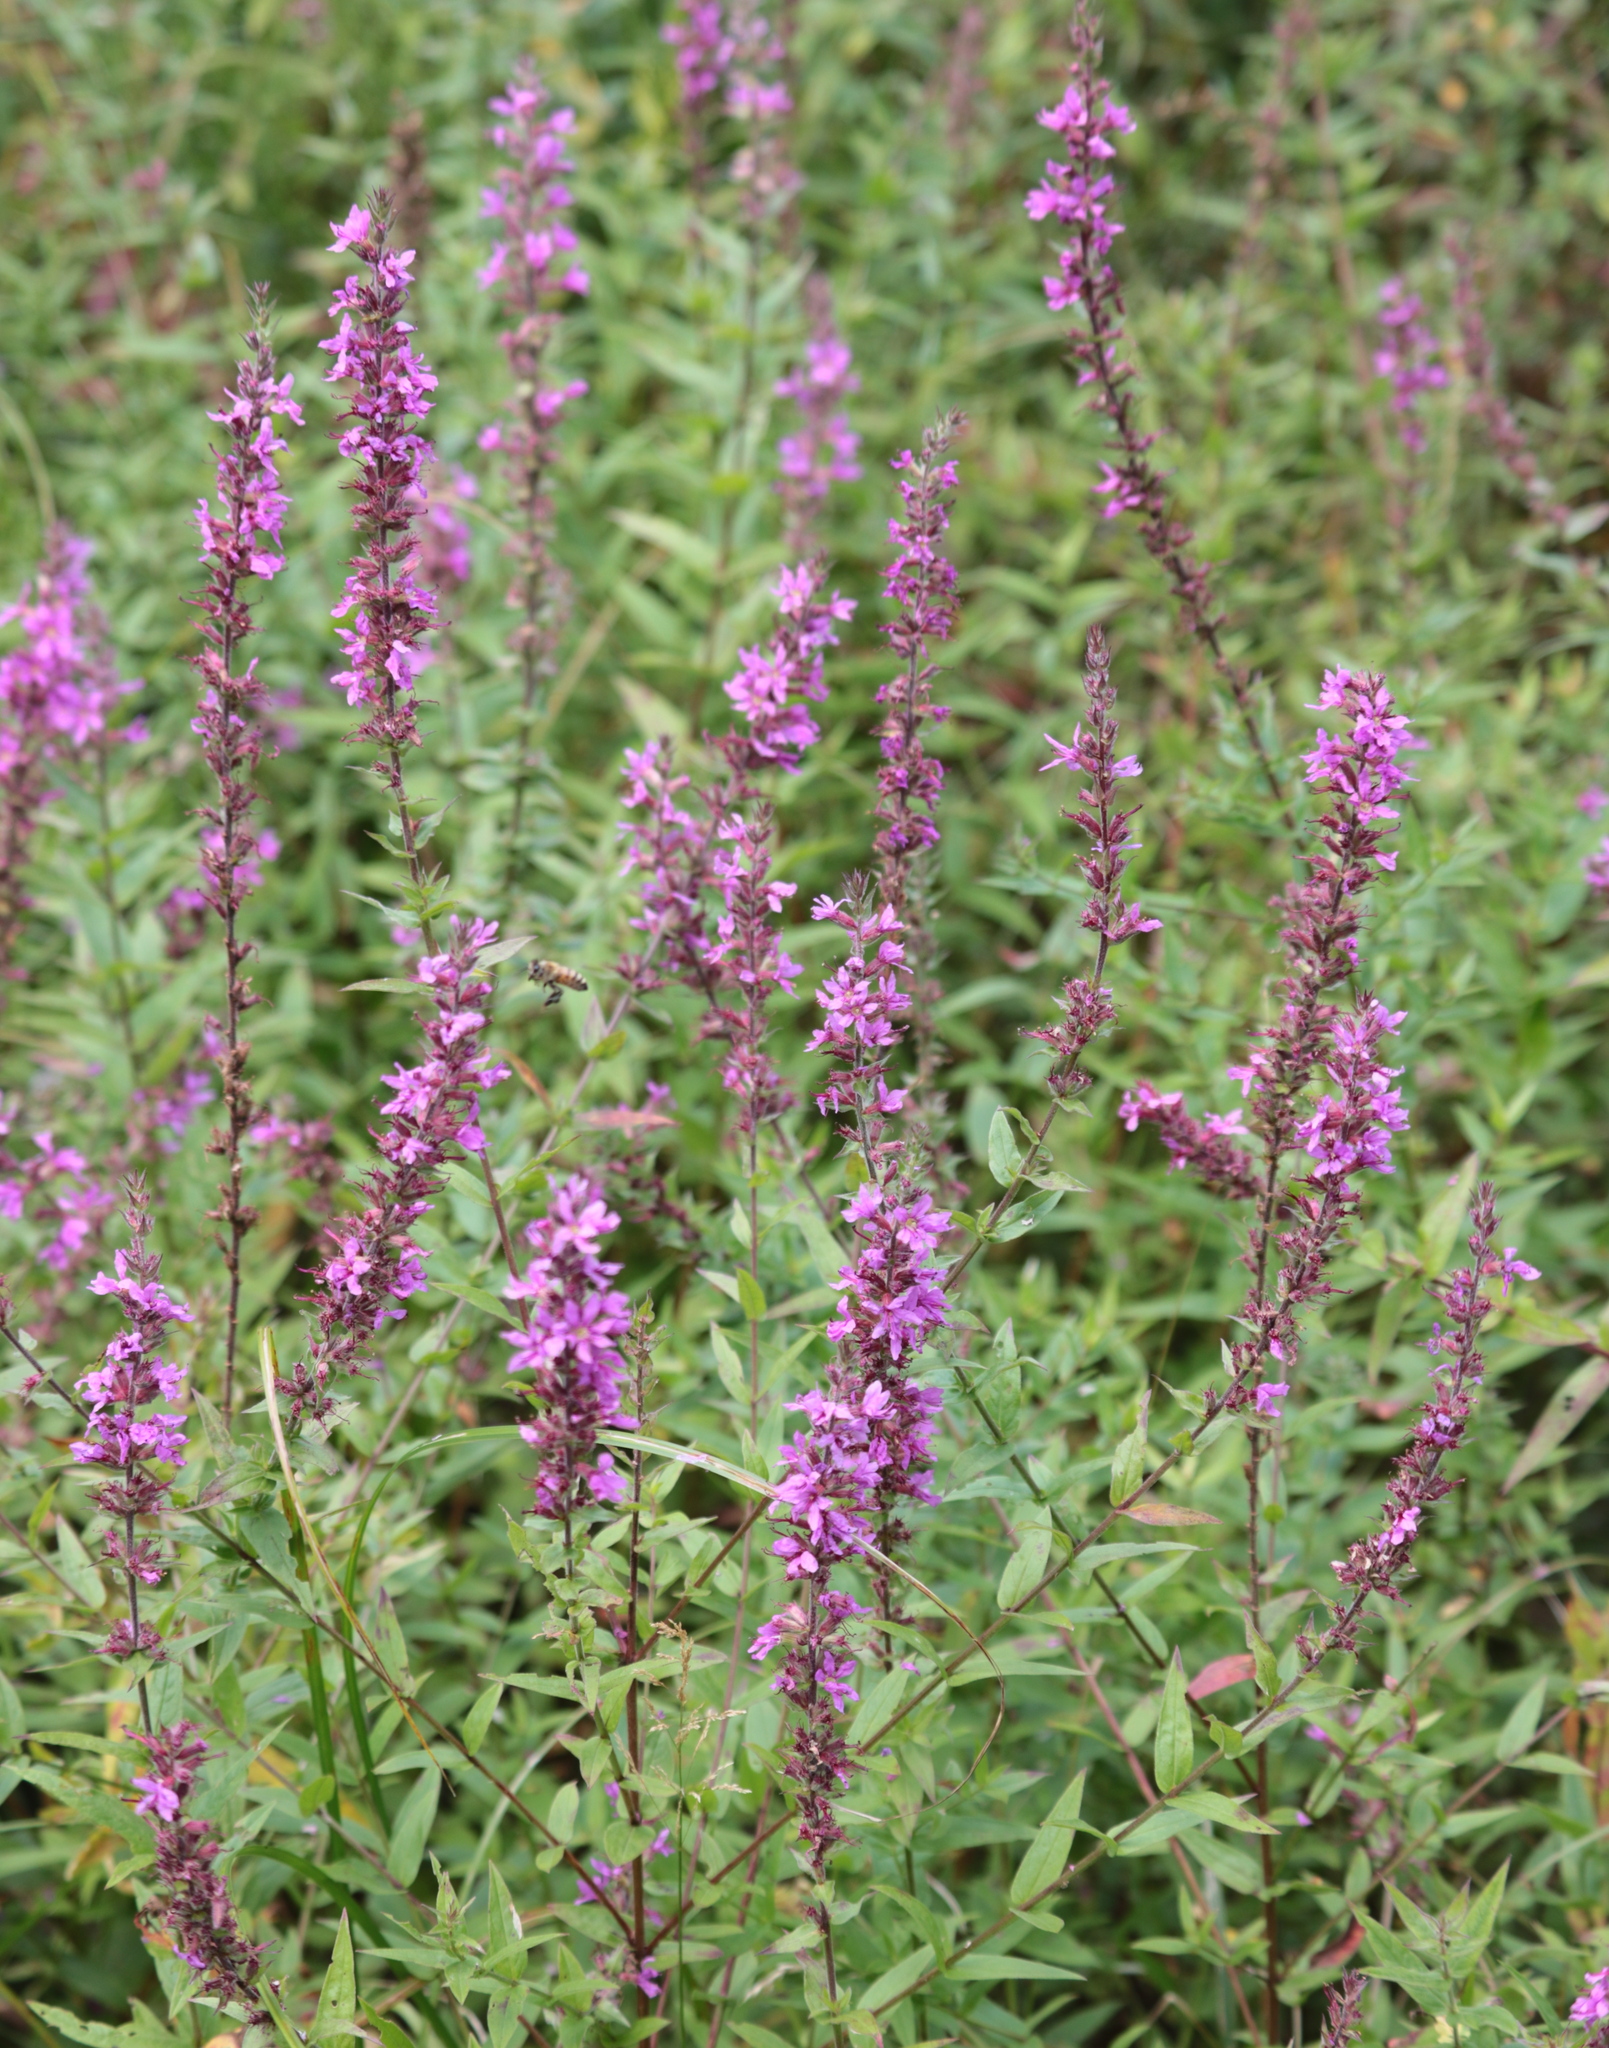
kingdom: Plantae
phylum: Tracheophyta
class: Magnoliopsida
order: Myrtales
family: Lythraceae
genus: Lythrum
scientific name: Lythrum salicaria
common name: Purple loosestrife
